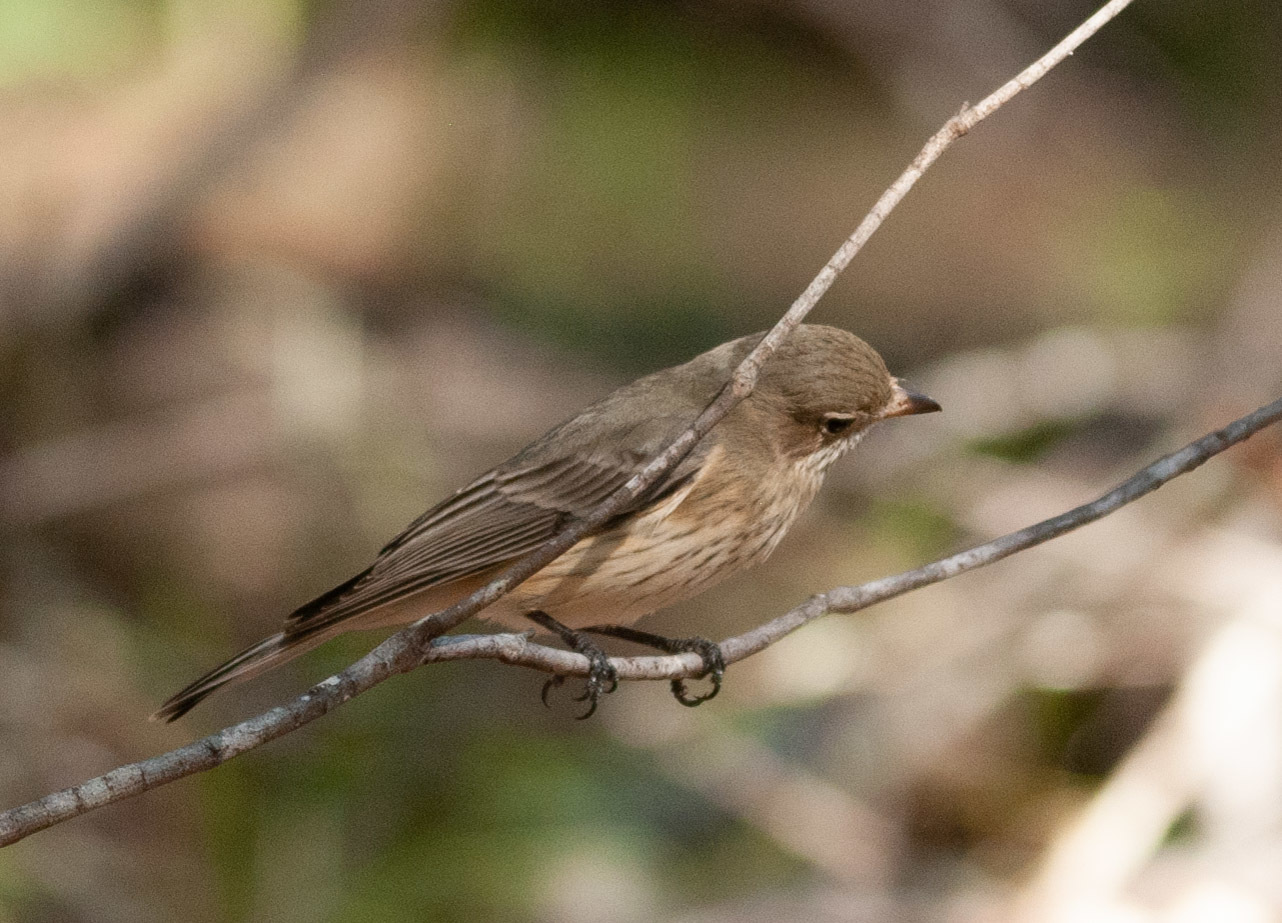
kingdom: Animalia
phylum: Chordata
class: Aves
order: Passeriformes
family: Pachycephalidae
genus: Pachycephala
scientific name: Pachycephala rufiventris
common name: Rufous whistler
